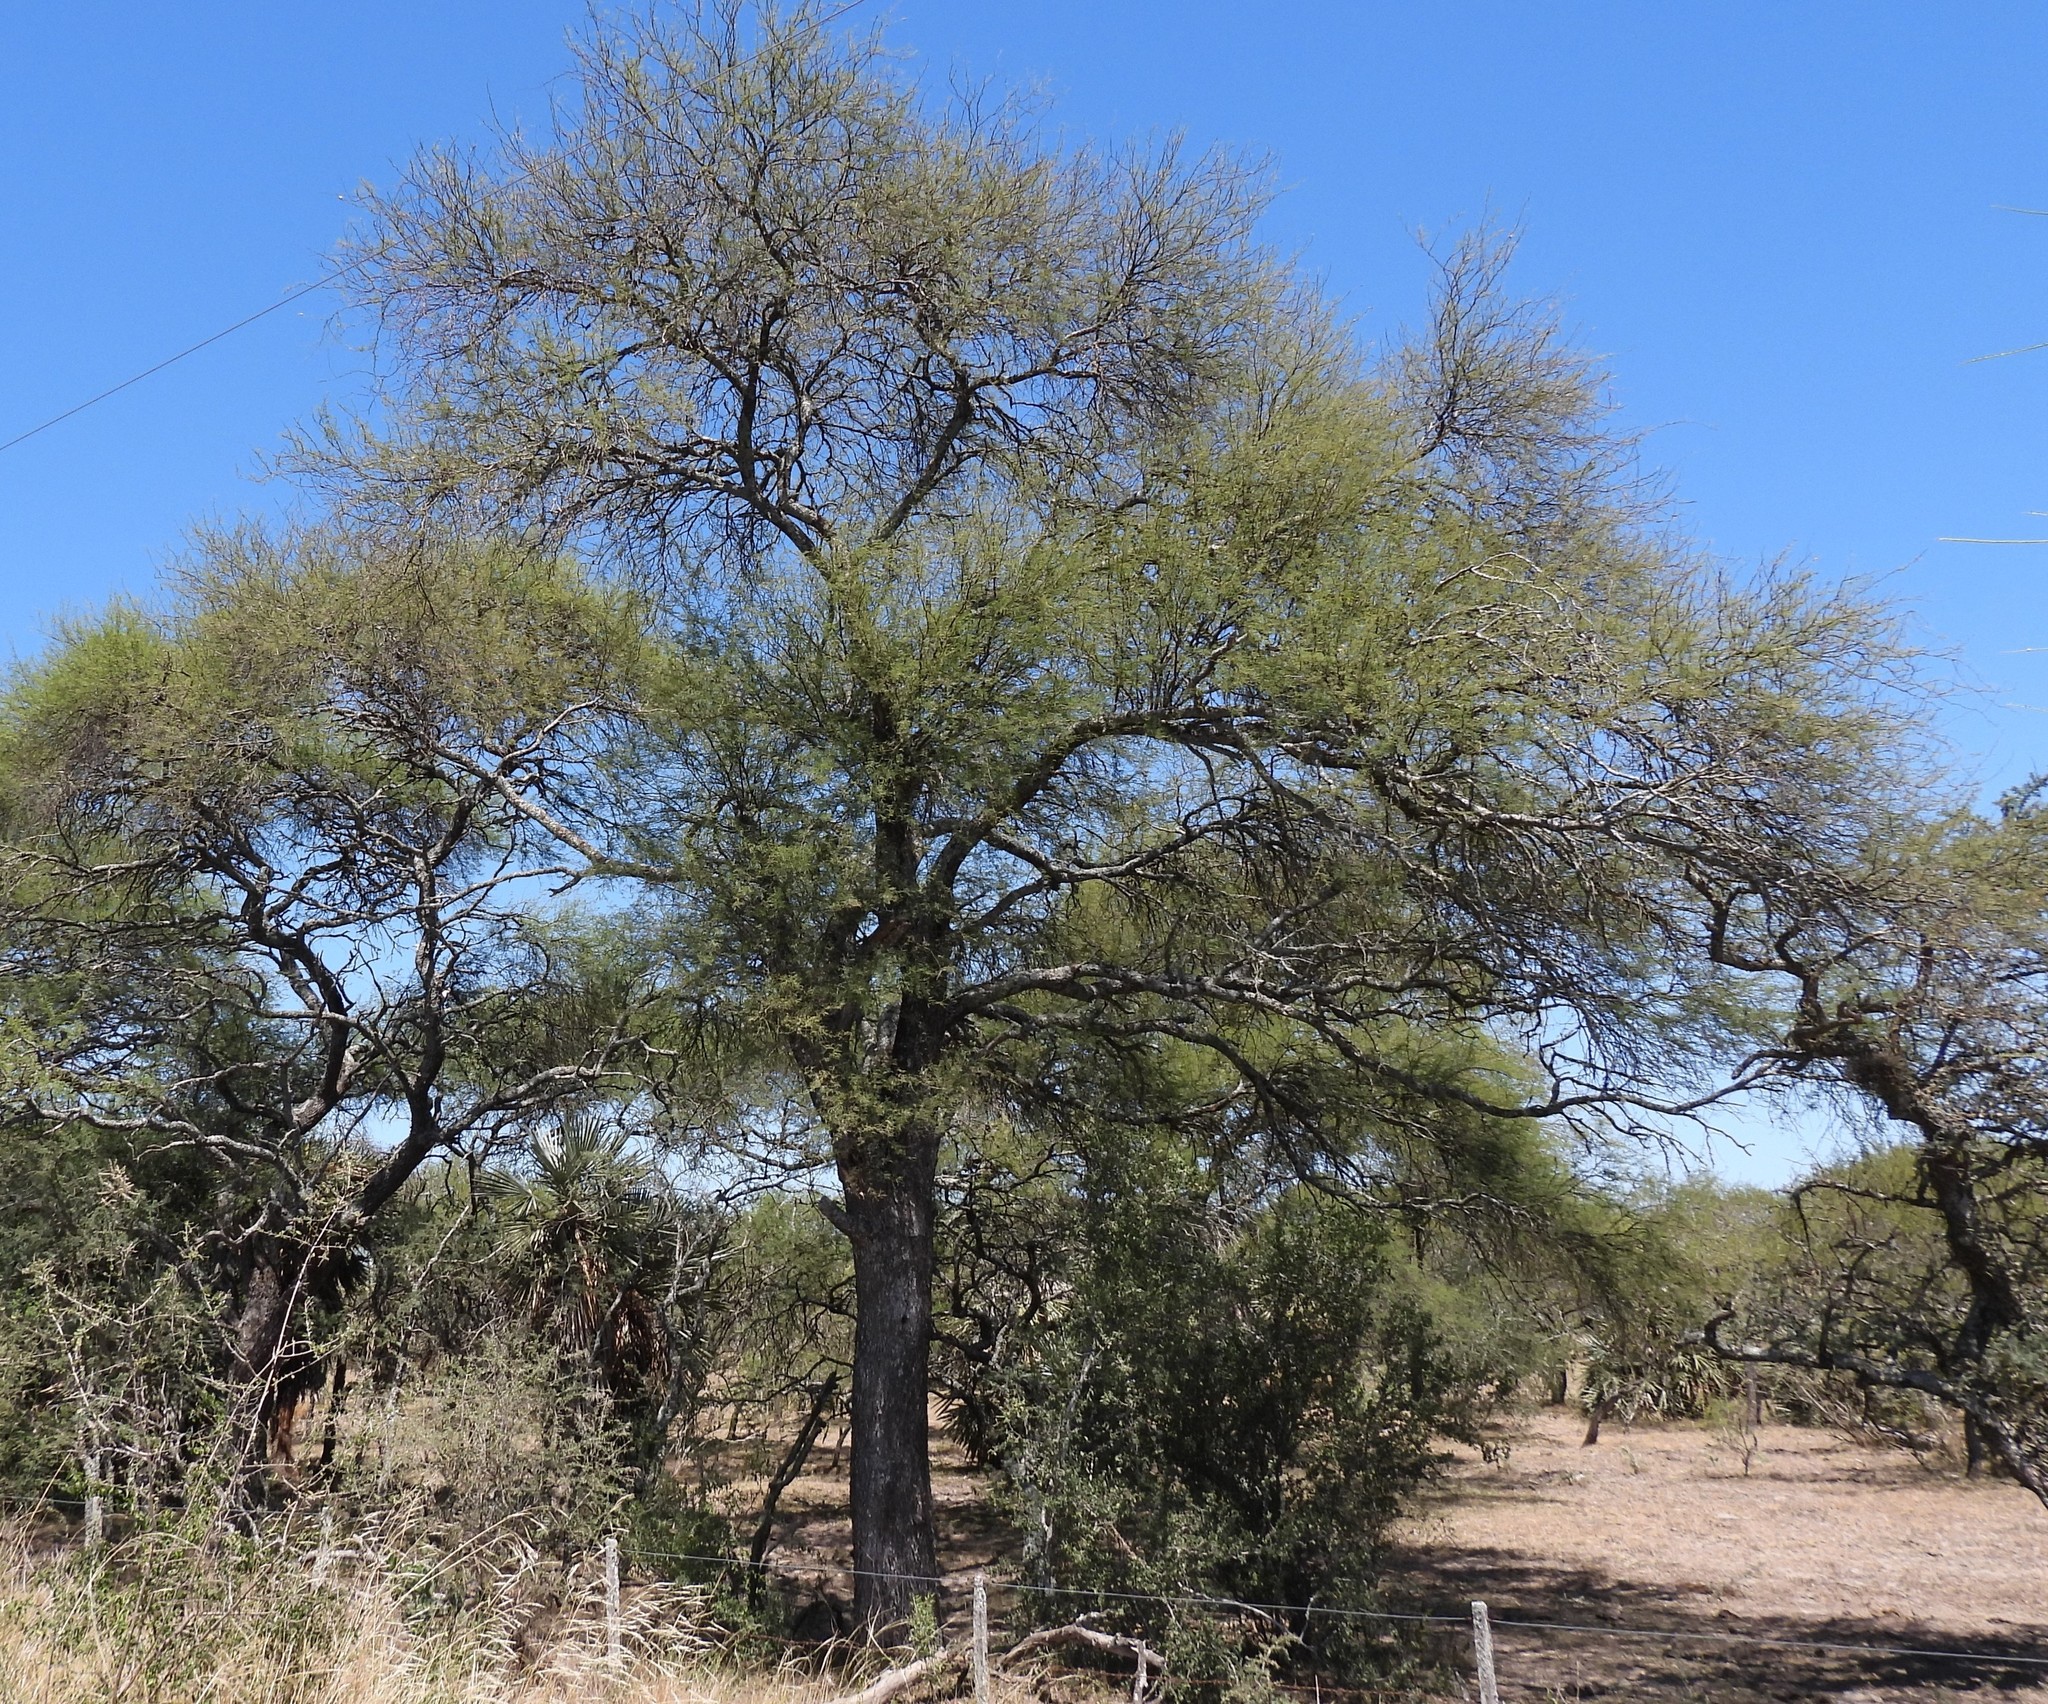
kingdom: Plantae
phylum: Tracheophyta
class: Magnoliopsida
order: Fabales
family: Fabaceae
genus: Prosopis
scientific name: Prosopis affinis
